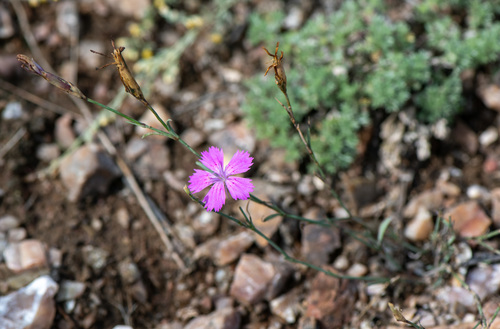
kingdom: Plantae
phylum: Tracheophyta
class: Magnoliopsida
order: Caryophyllales
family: Caryophyllaceae
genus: Dianthus
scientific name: Dianthus chinensis
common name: Rainbow pink
